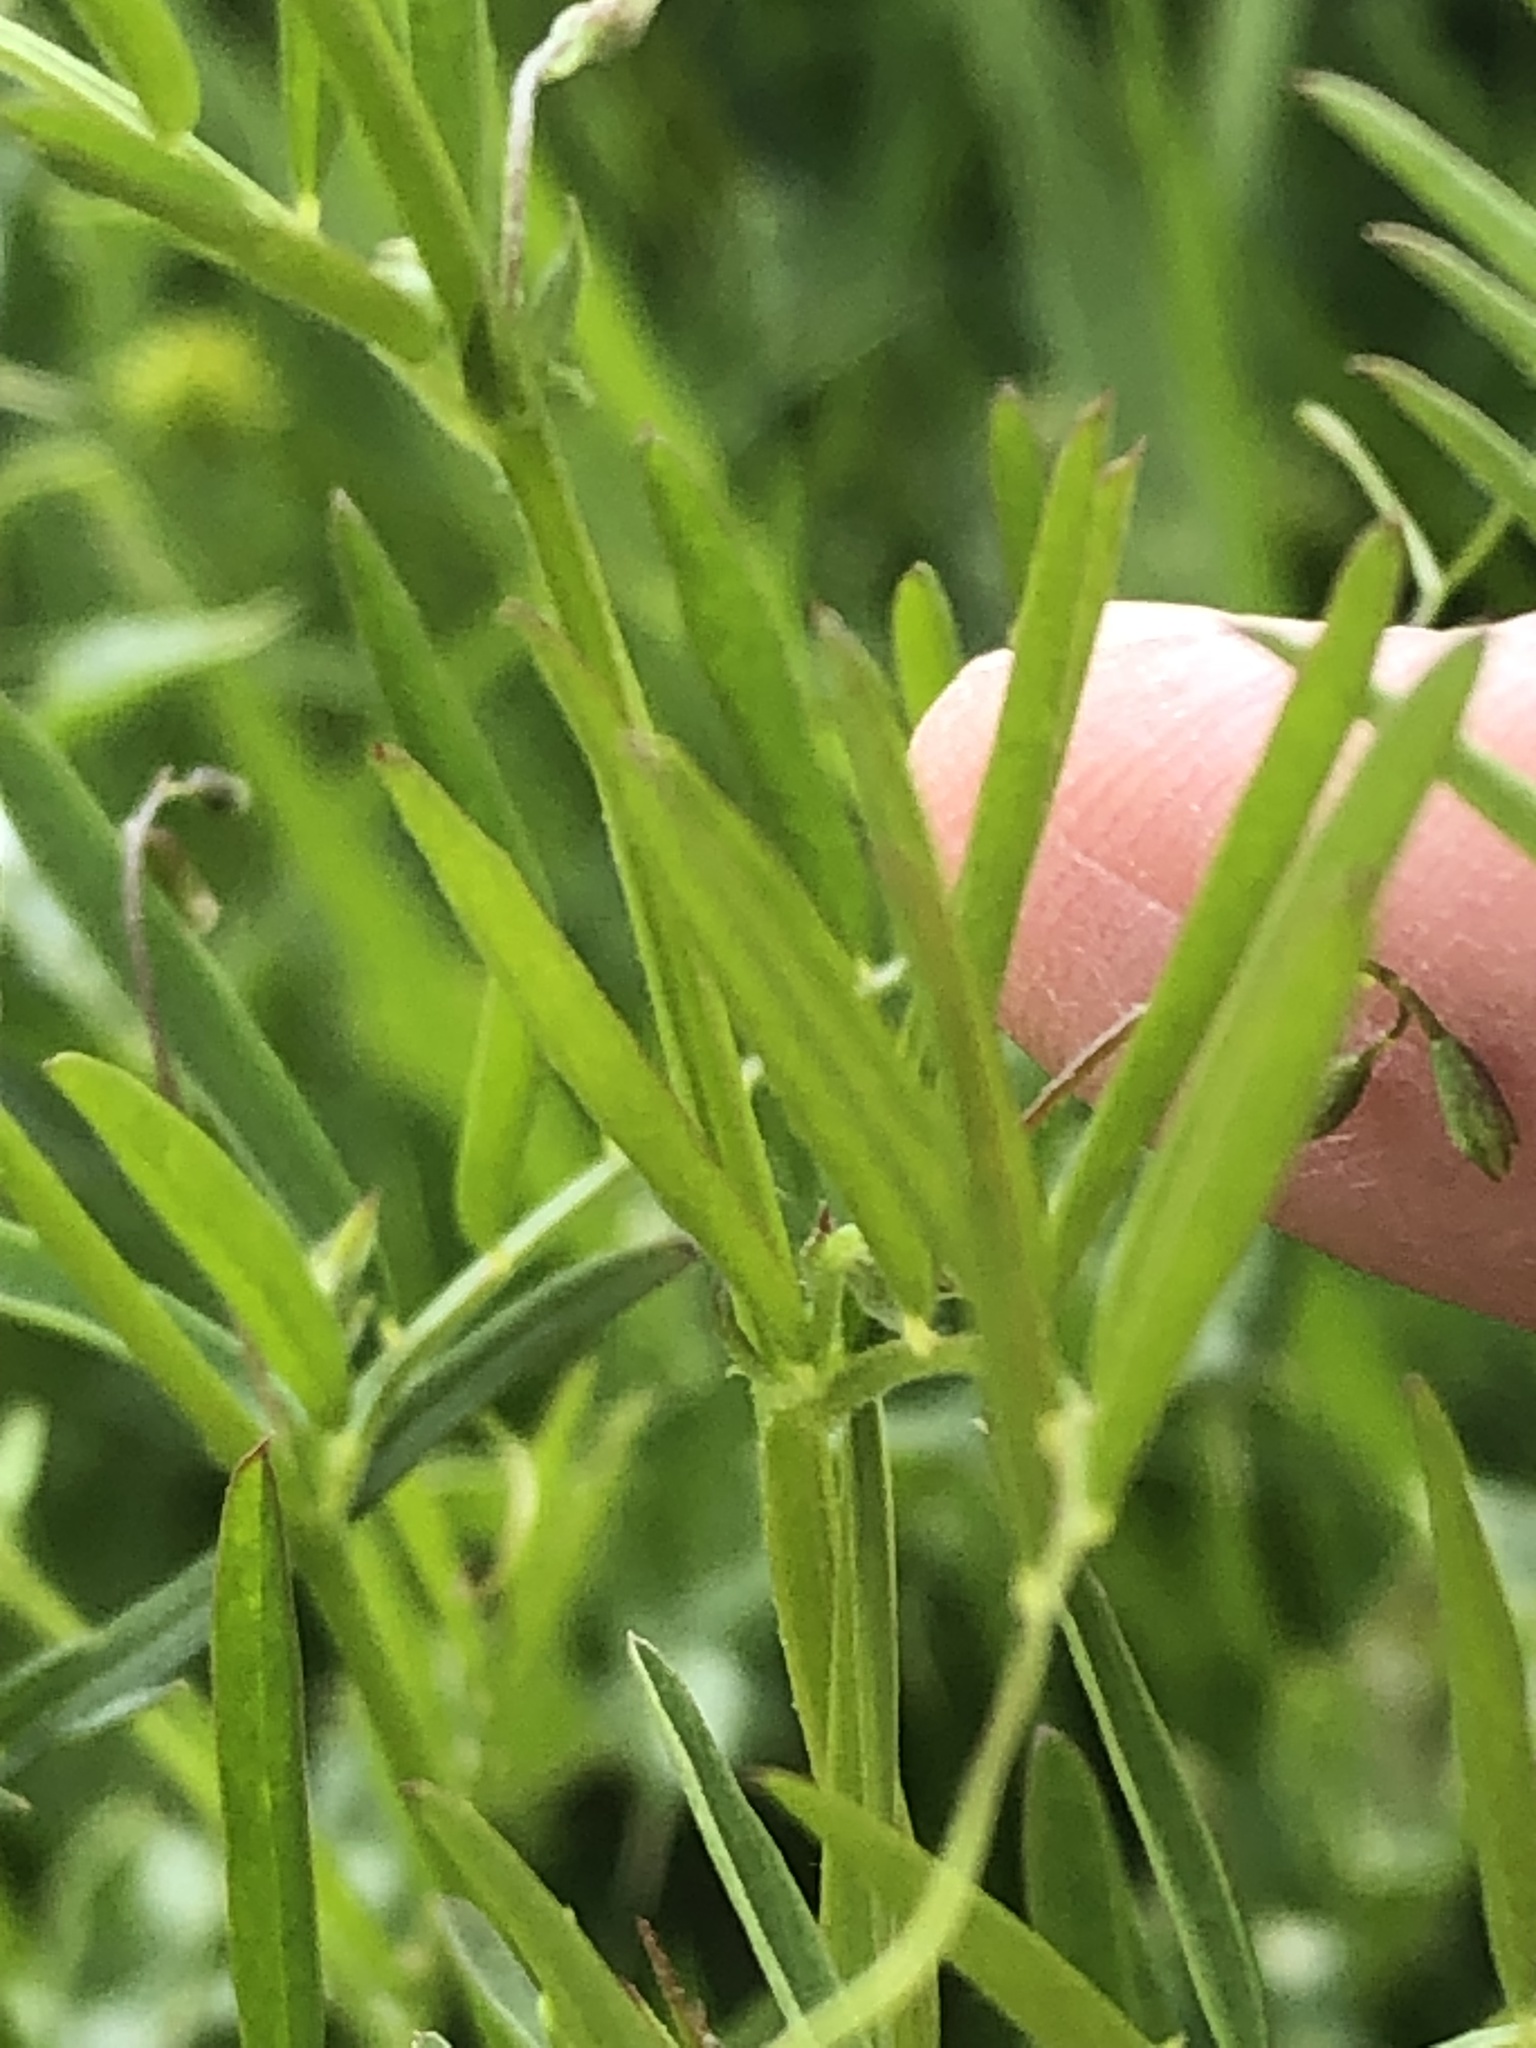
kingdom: Plantae
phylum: Tracheophyta
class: Magnoliopsida
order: Fabales
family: Fabaceae
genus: Vicia
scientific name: Vicia tetrasperma
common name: Smooth tare
